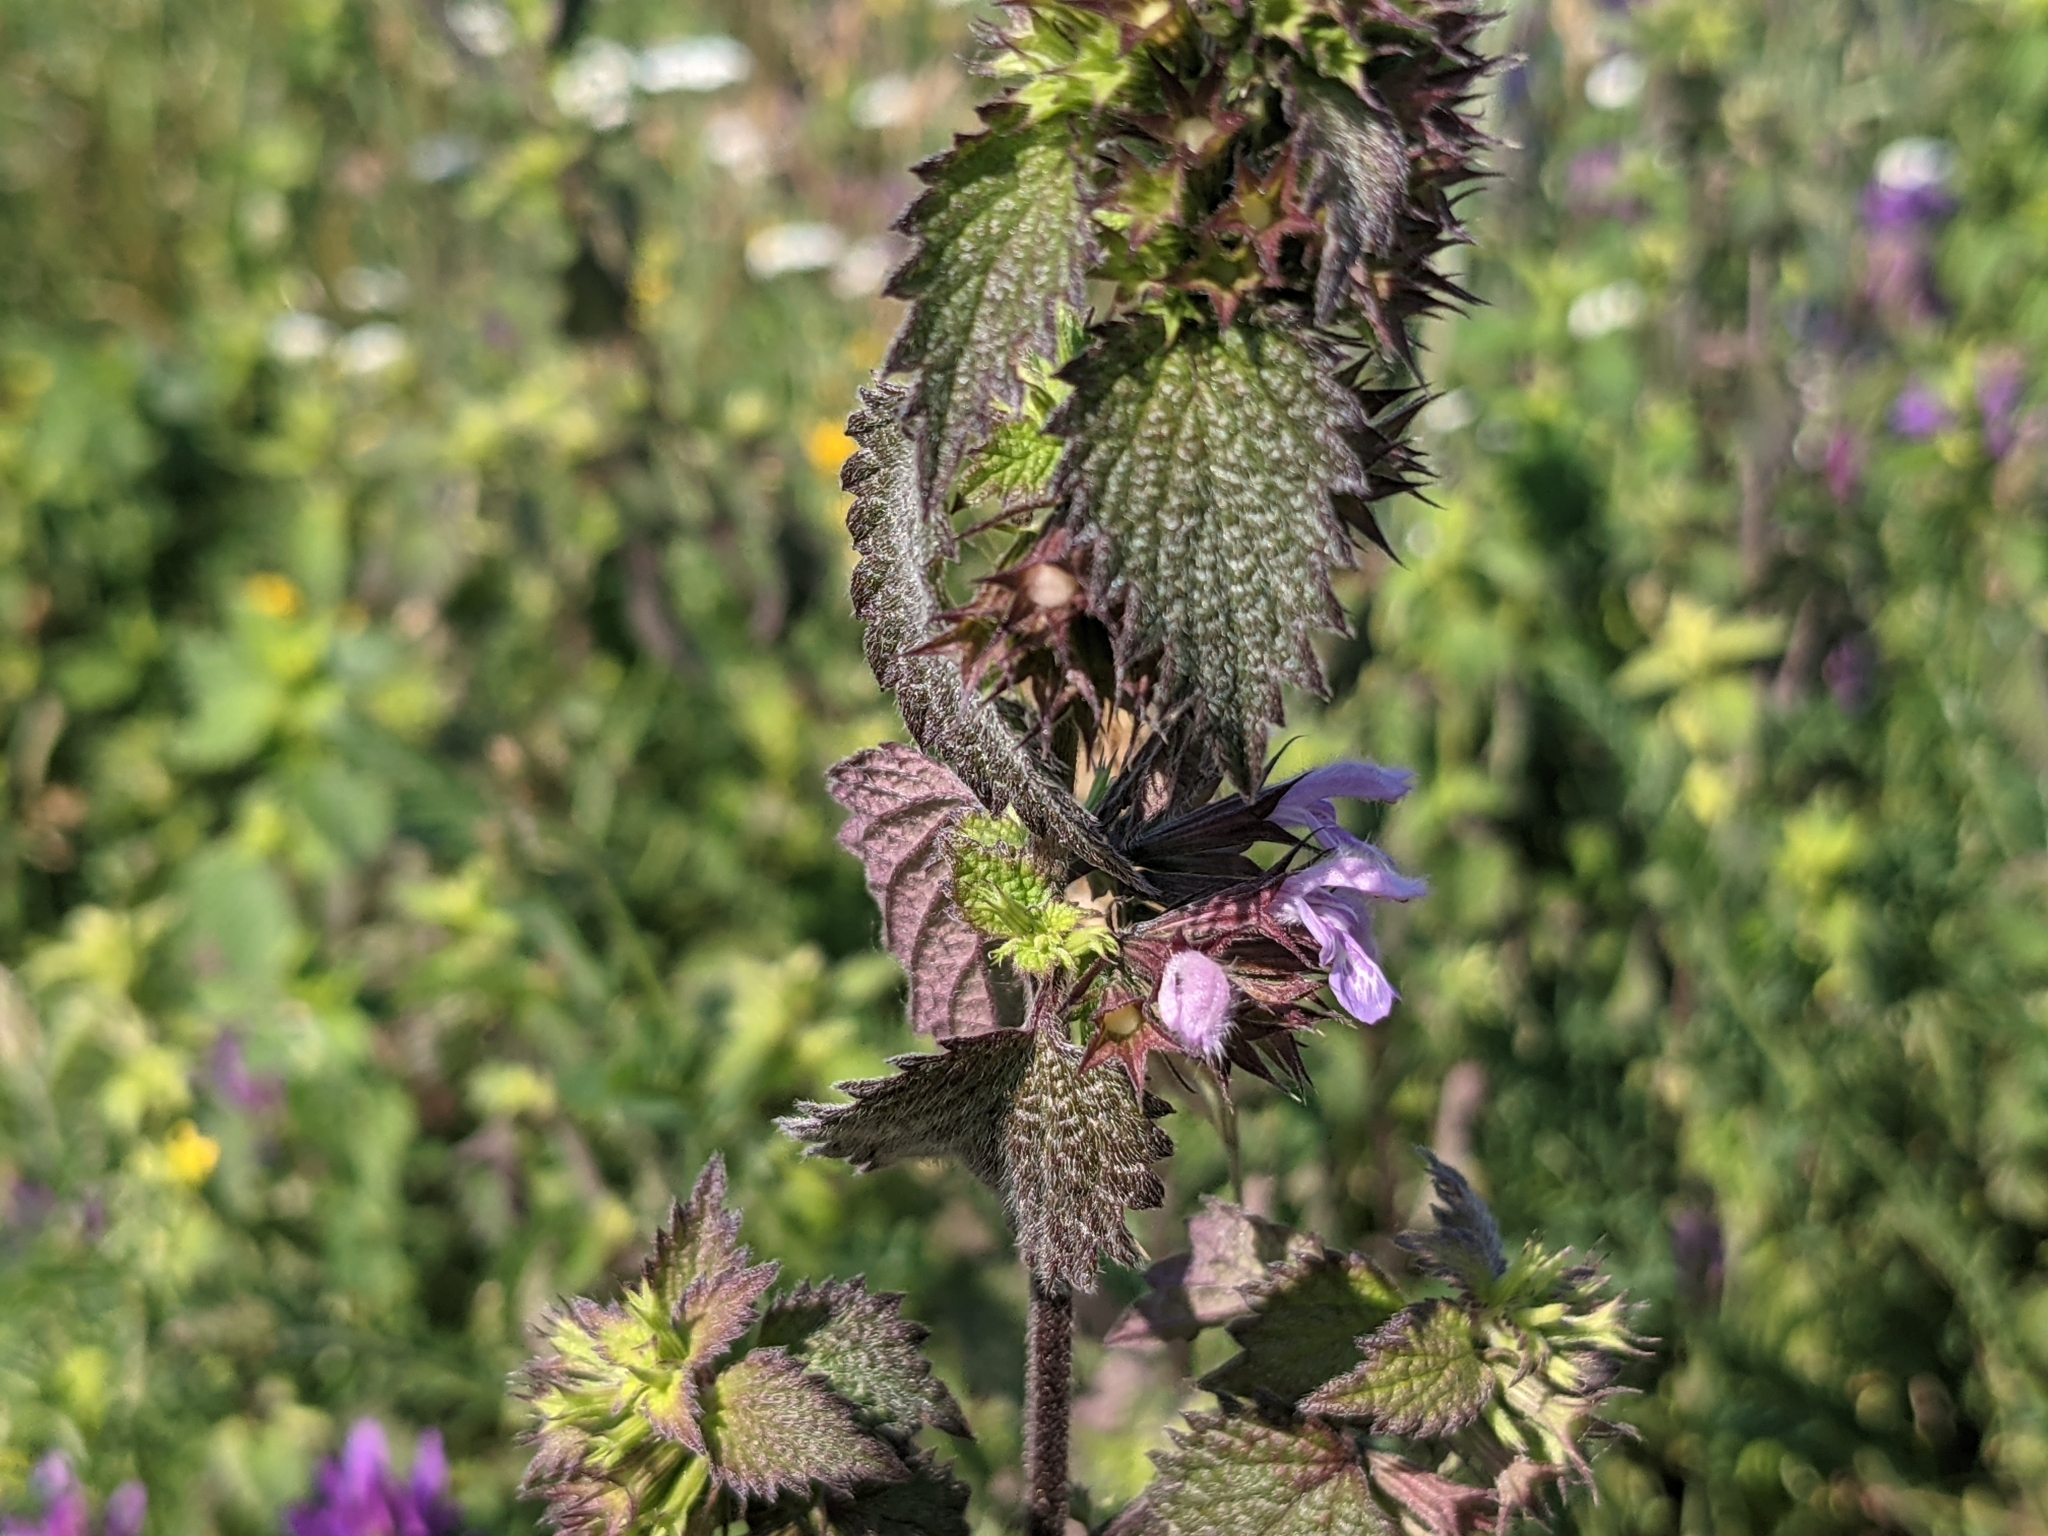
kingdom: Plantae
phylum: Tracheophyta
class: Magnoliopsida
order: Lamiales
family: Lamiaceae
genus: Ballota
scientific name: Ballota nigra
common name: Black horehound
